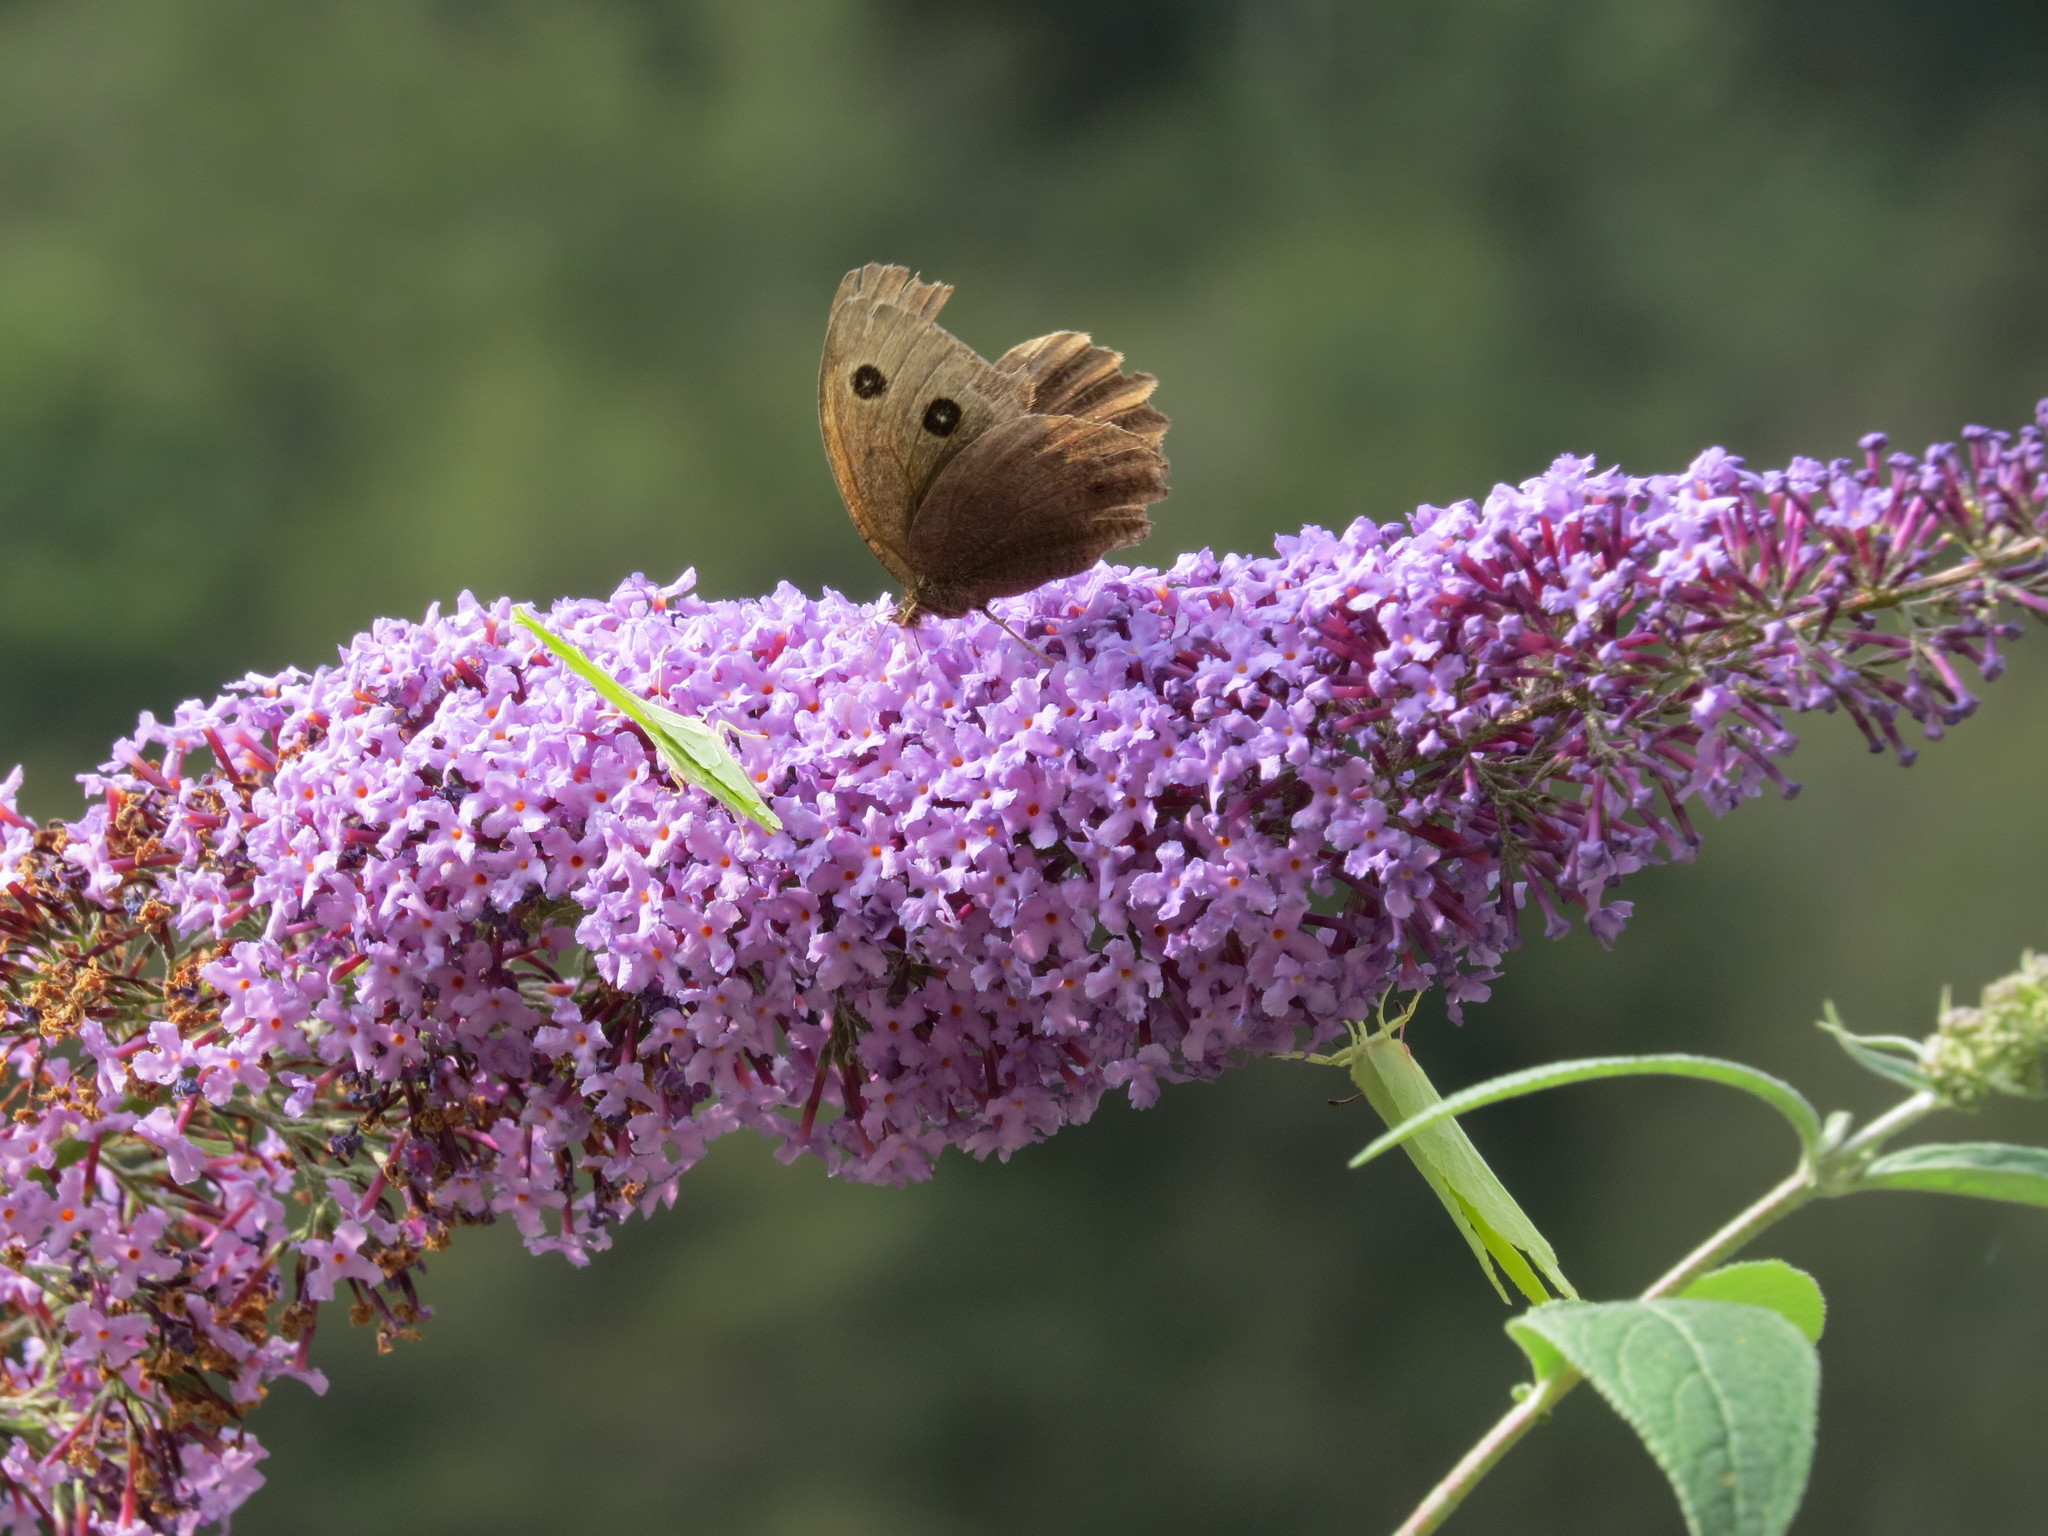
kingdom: Animalia
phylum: Arthropoda
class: Insecta
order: Lepidoptera
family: Nymphalidae
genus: Minois
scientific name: Minois dryas
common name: Dryad
